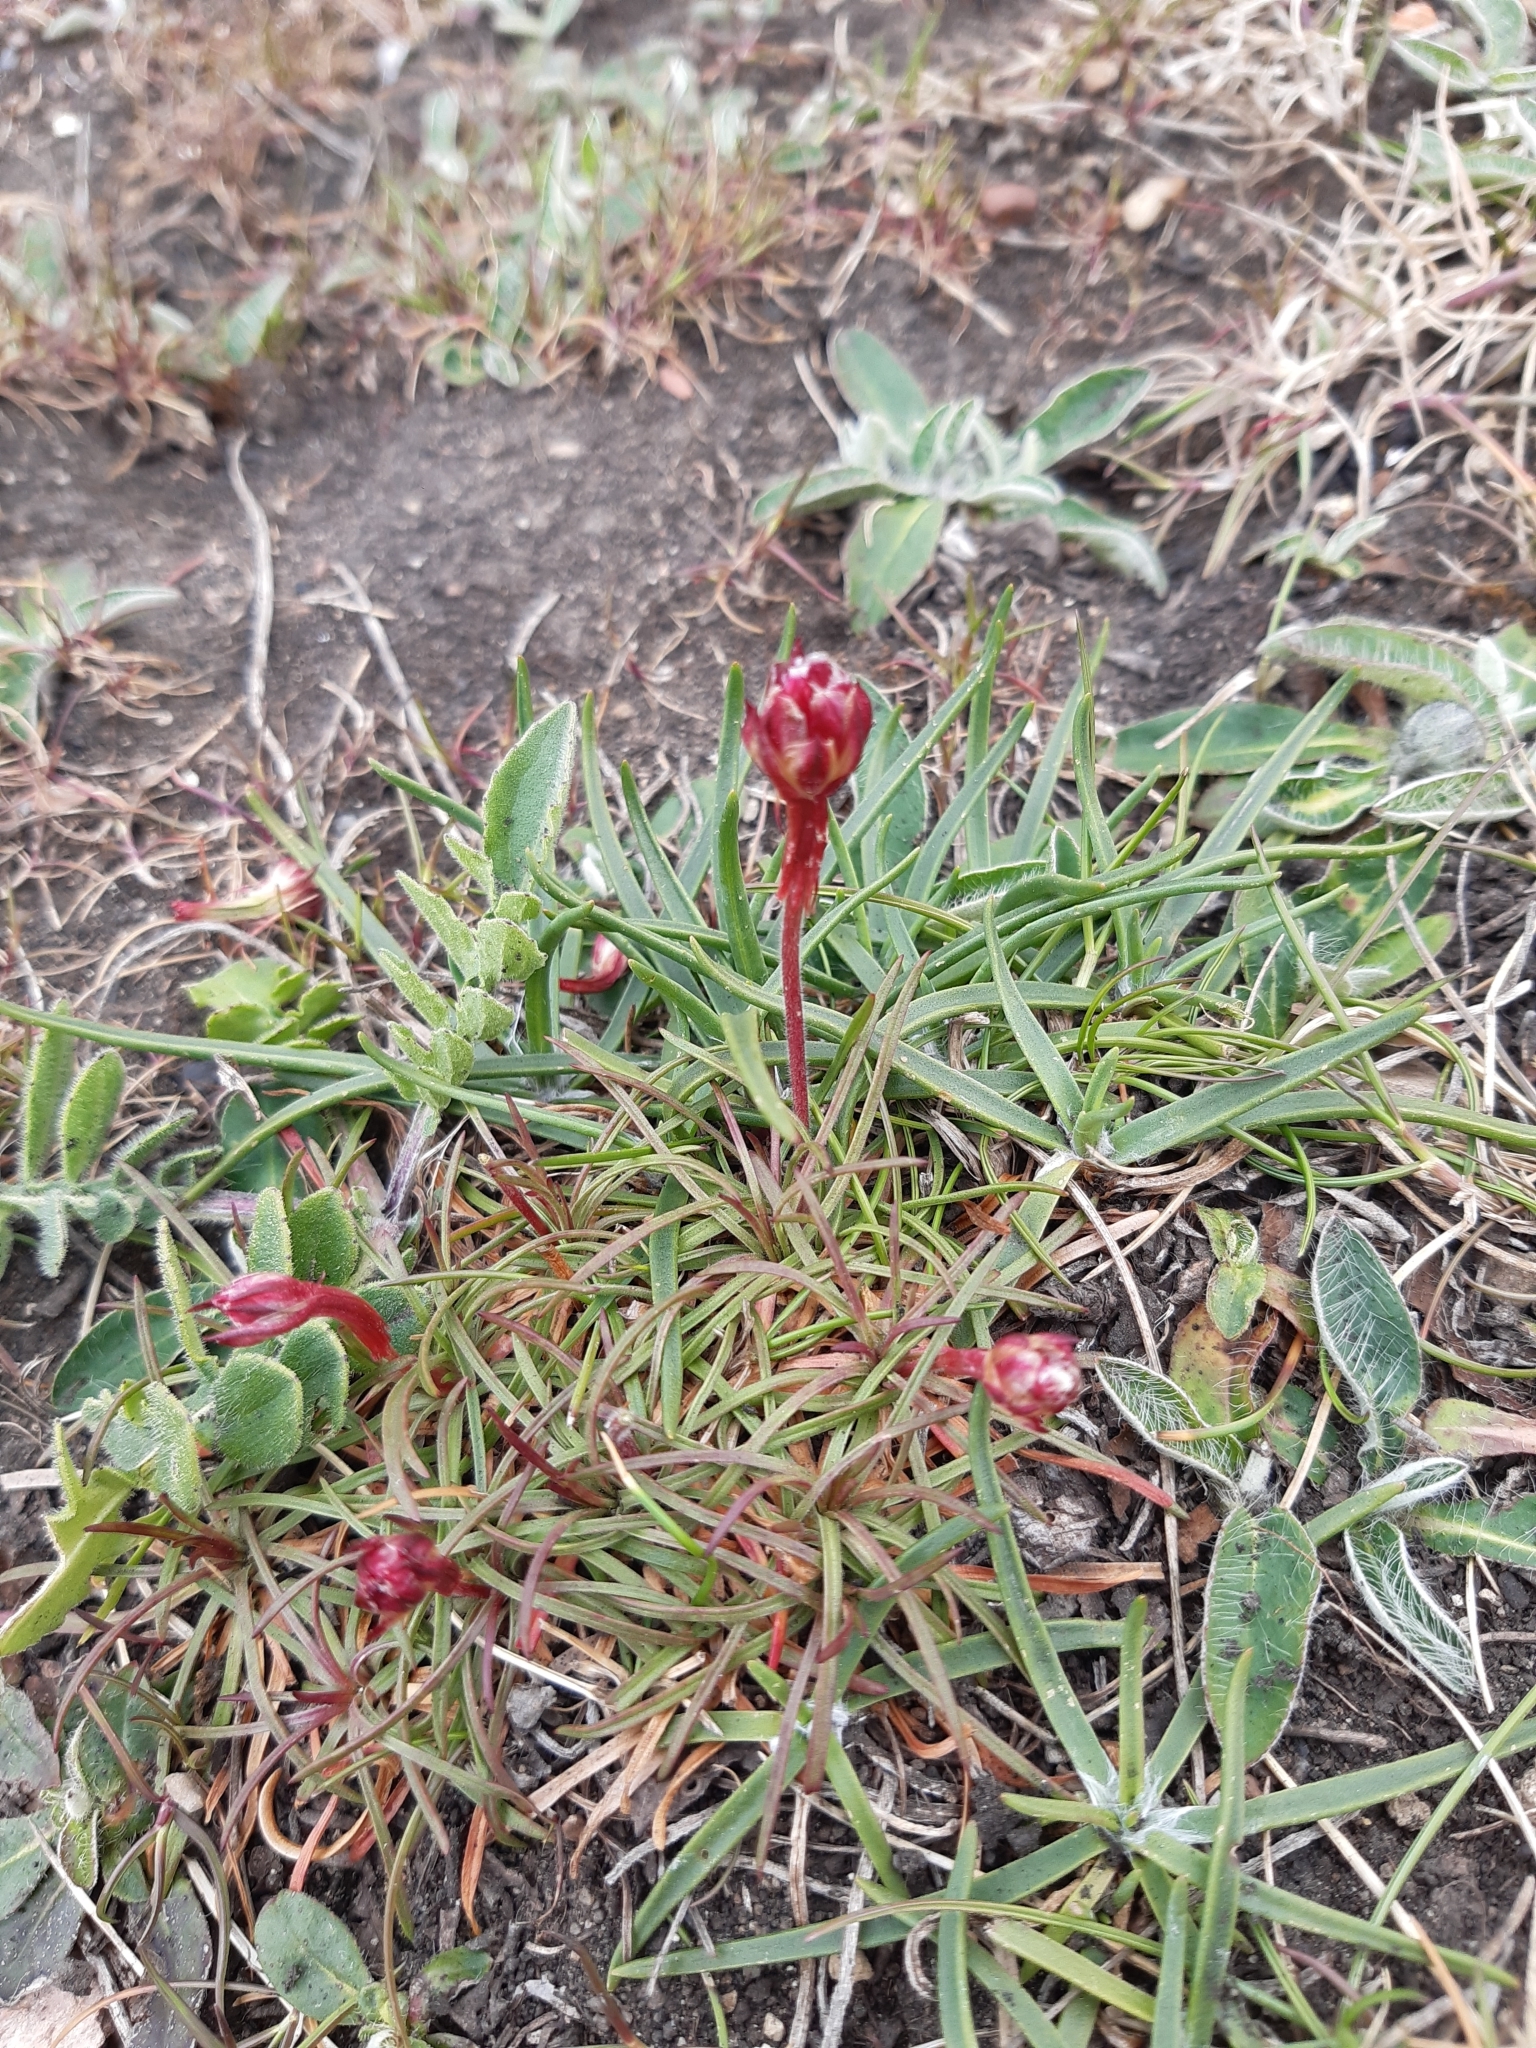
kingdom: Plantae
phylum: Tracheophyta
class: Magnoliopsida
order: Caryophyllales
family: Plumbaginaceae
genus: Armeria
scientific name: Armeria maritima
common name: Thrift
